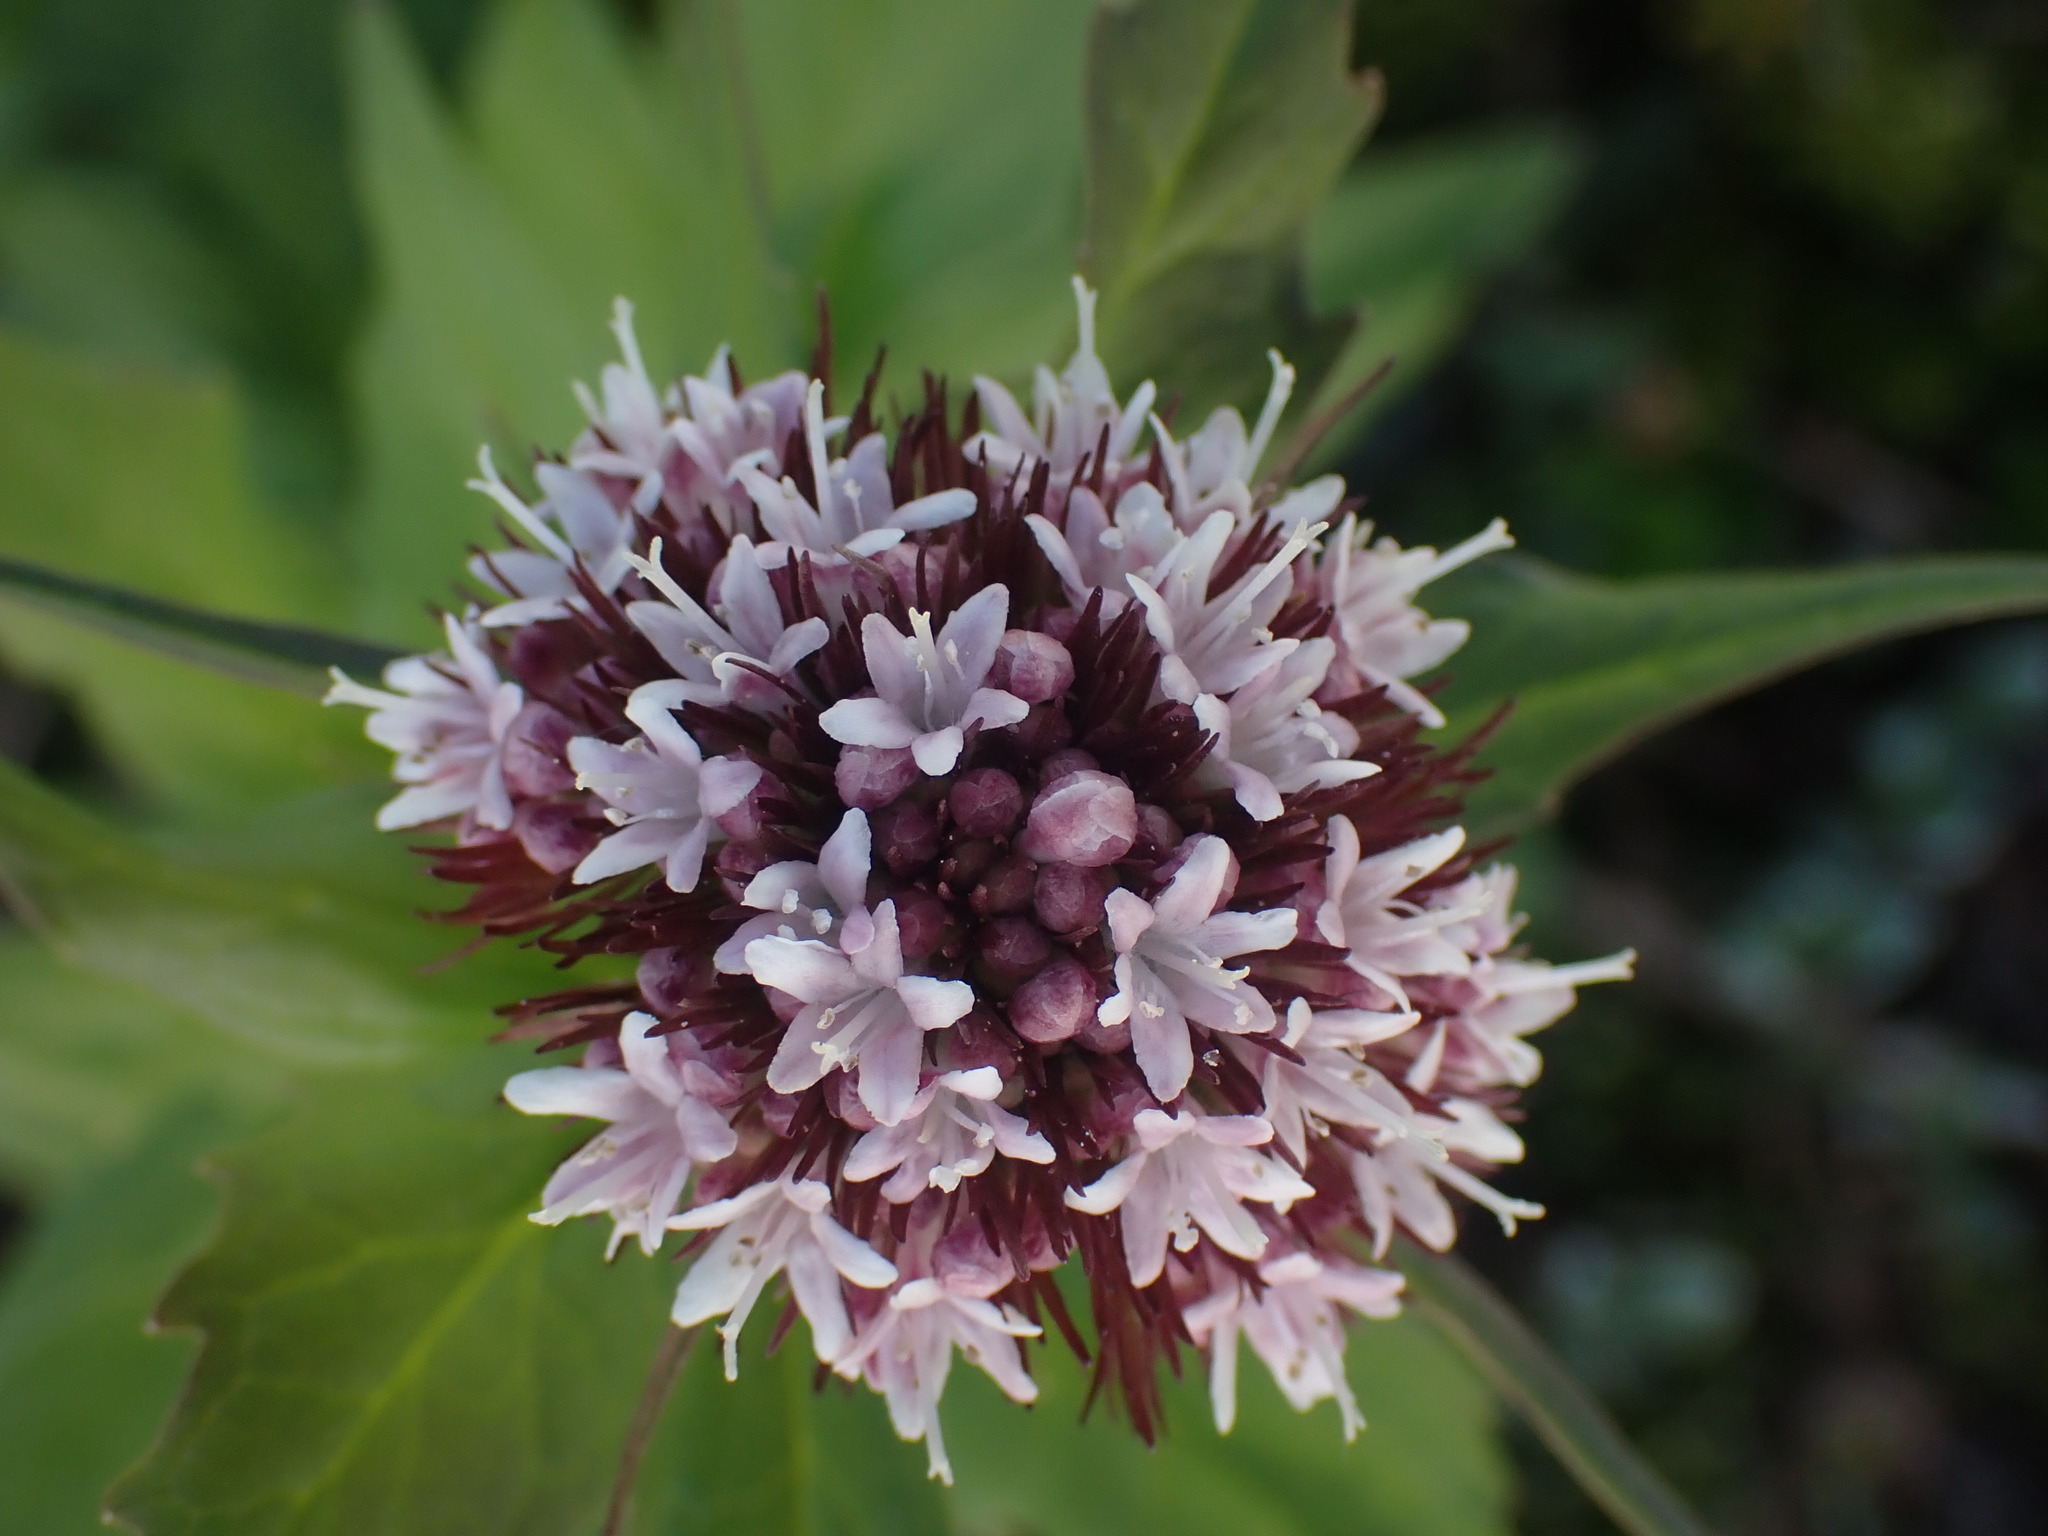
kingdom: Plantae
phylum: Tracheophyta
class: Magnoliopsida
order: Dipsacales
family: Caprifoliaceae
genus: Valeriana
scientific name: Valeriana sitchensis
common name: Pacific valerian
